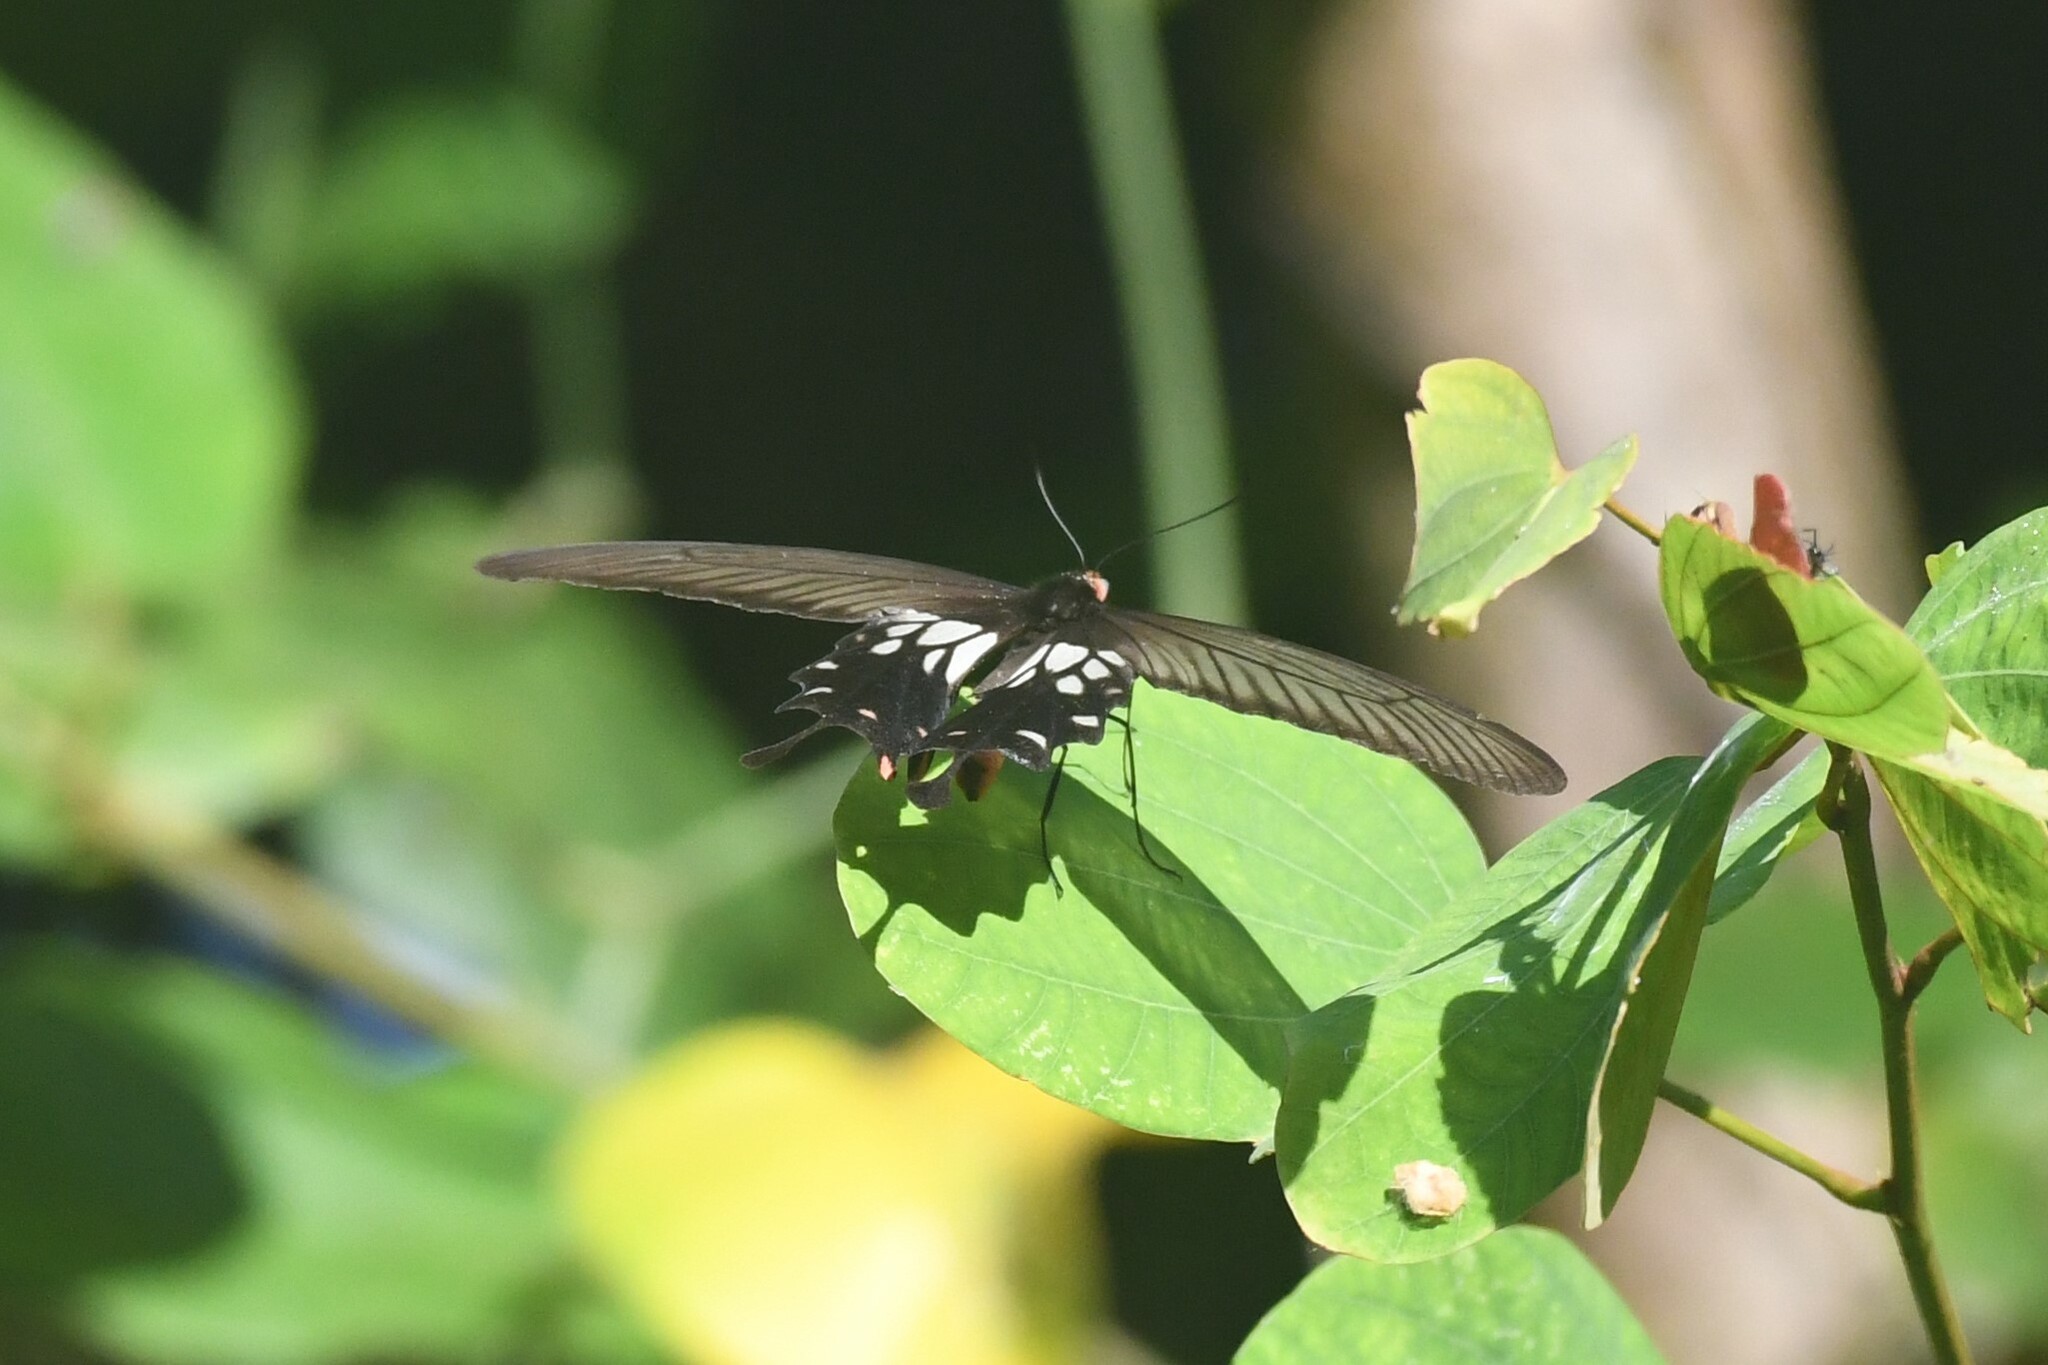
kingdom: Animalia
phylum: Arthropoda
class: Insecta
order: Lepidoptera
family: Papilionidae
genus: Losaria
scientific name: Losaria
